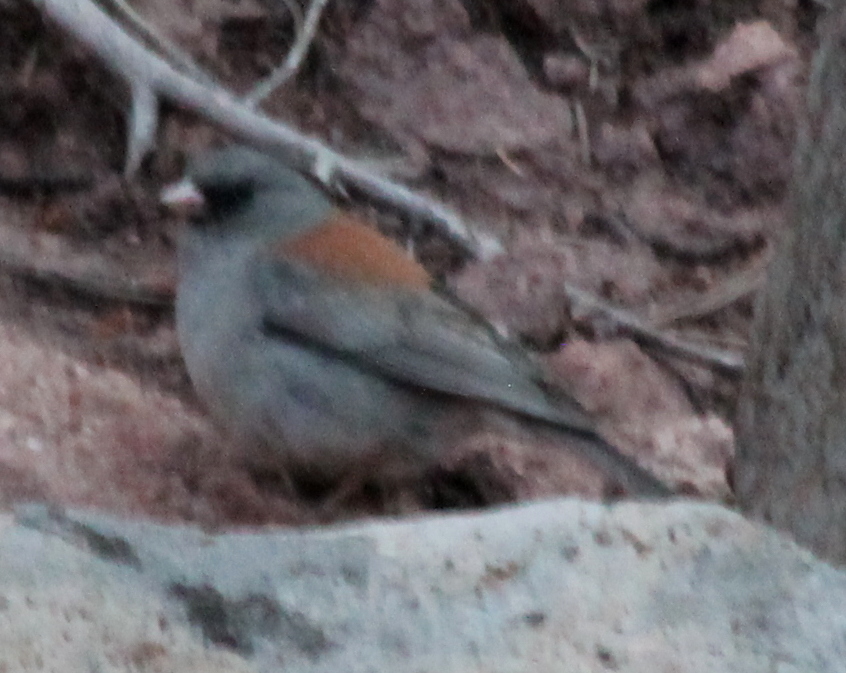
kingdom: Animalia
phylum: Chordata
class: Aves
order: Passeriformes
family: Passerellidae
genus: Junco
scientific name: Junco hyemalis
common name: Dark-eyed junco
